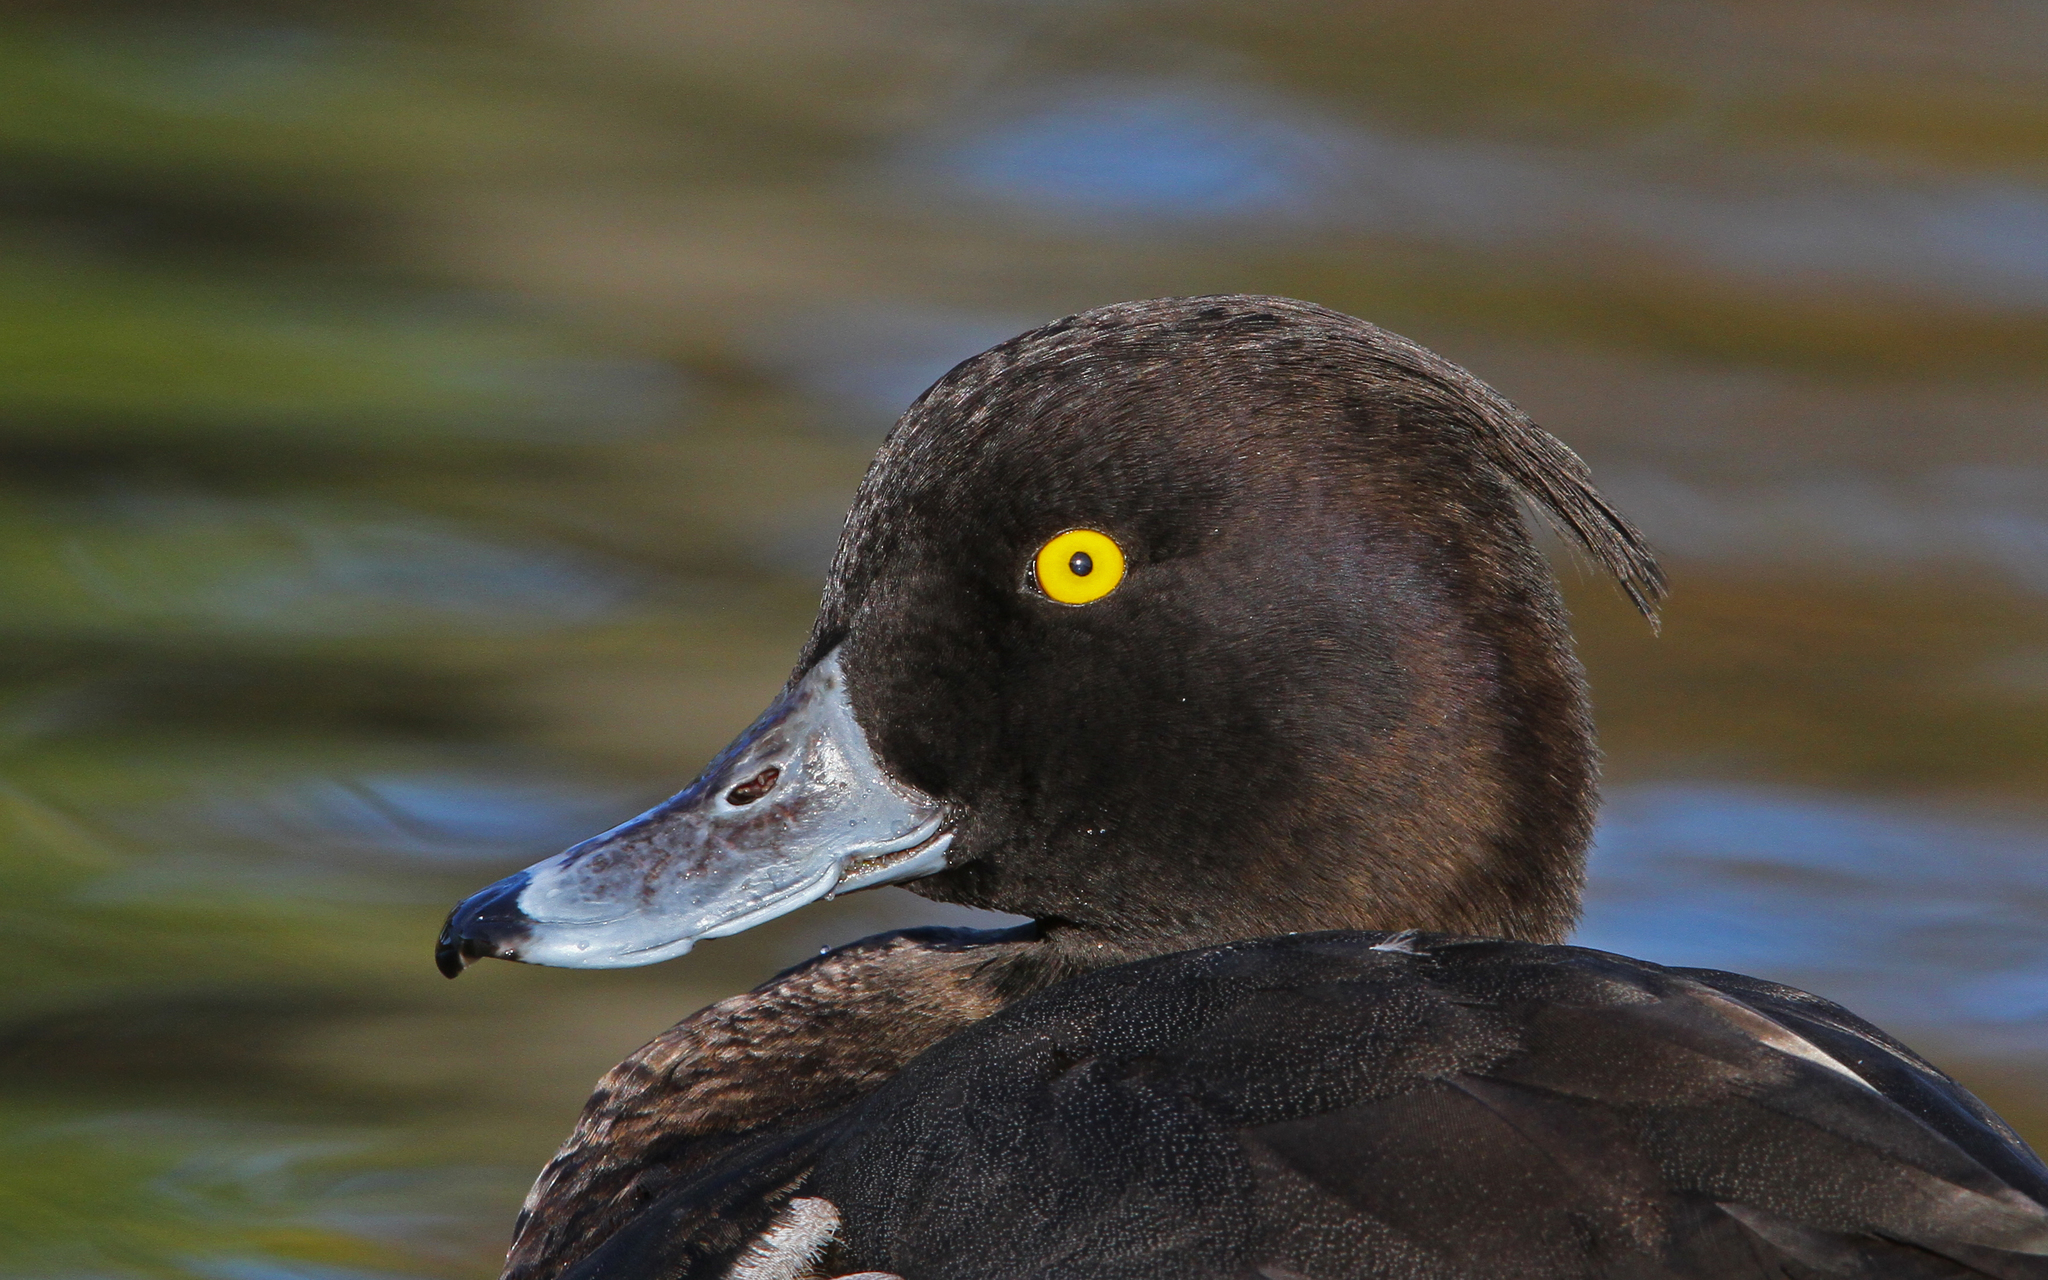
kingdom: Animalia
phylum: Chordata
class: Aves
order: Anseriformes
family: Anatidae
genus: Aythya
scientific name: Aythya fuligula
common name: Tufted duck
